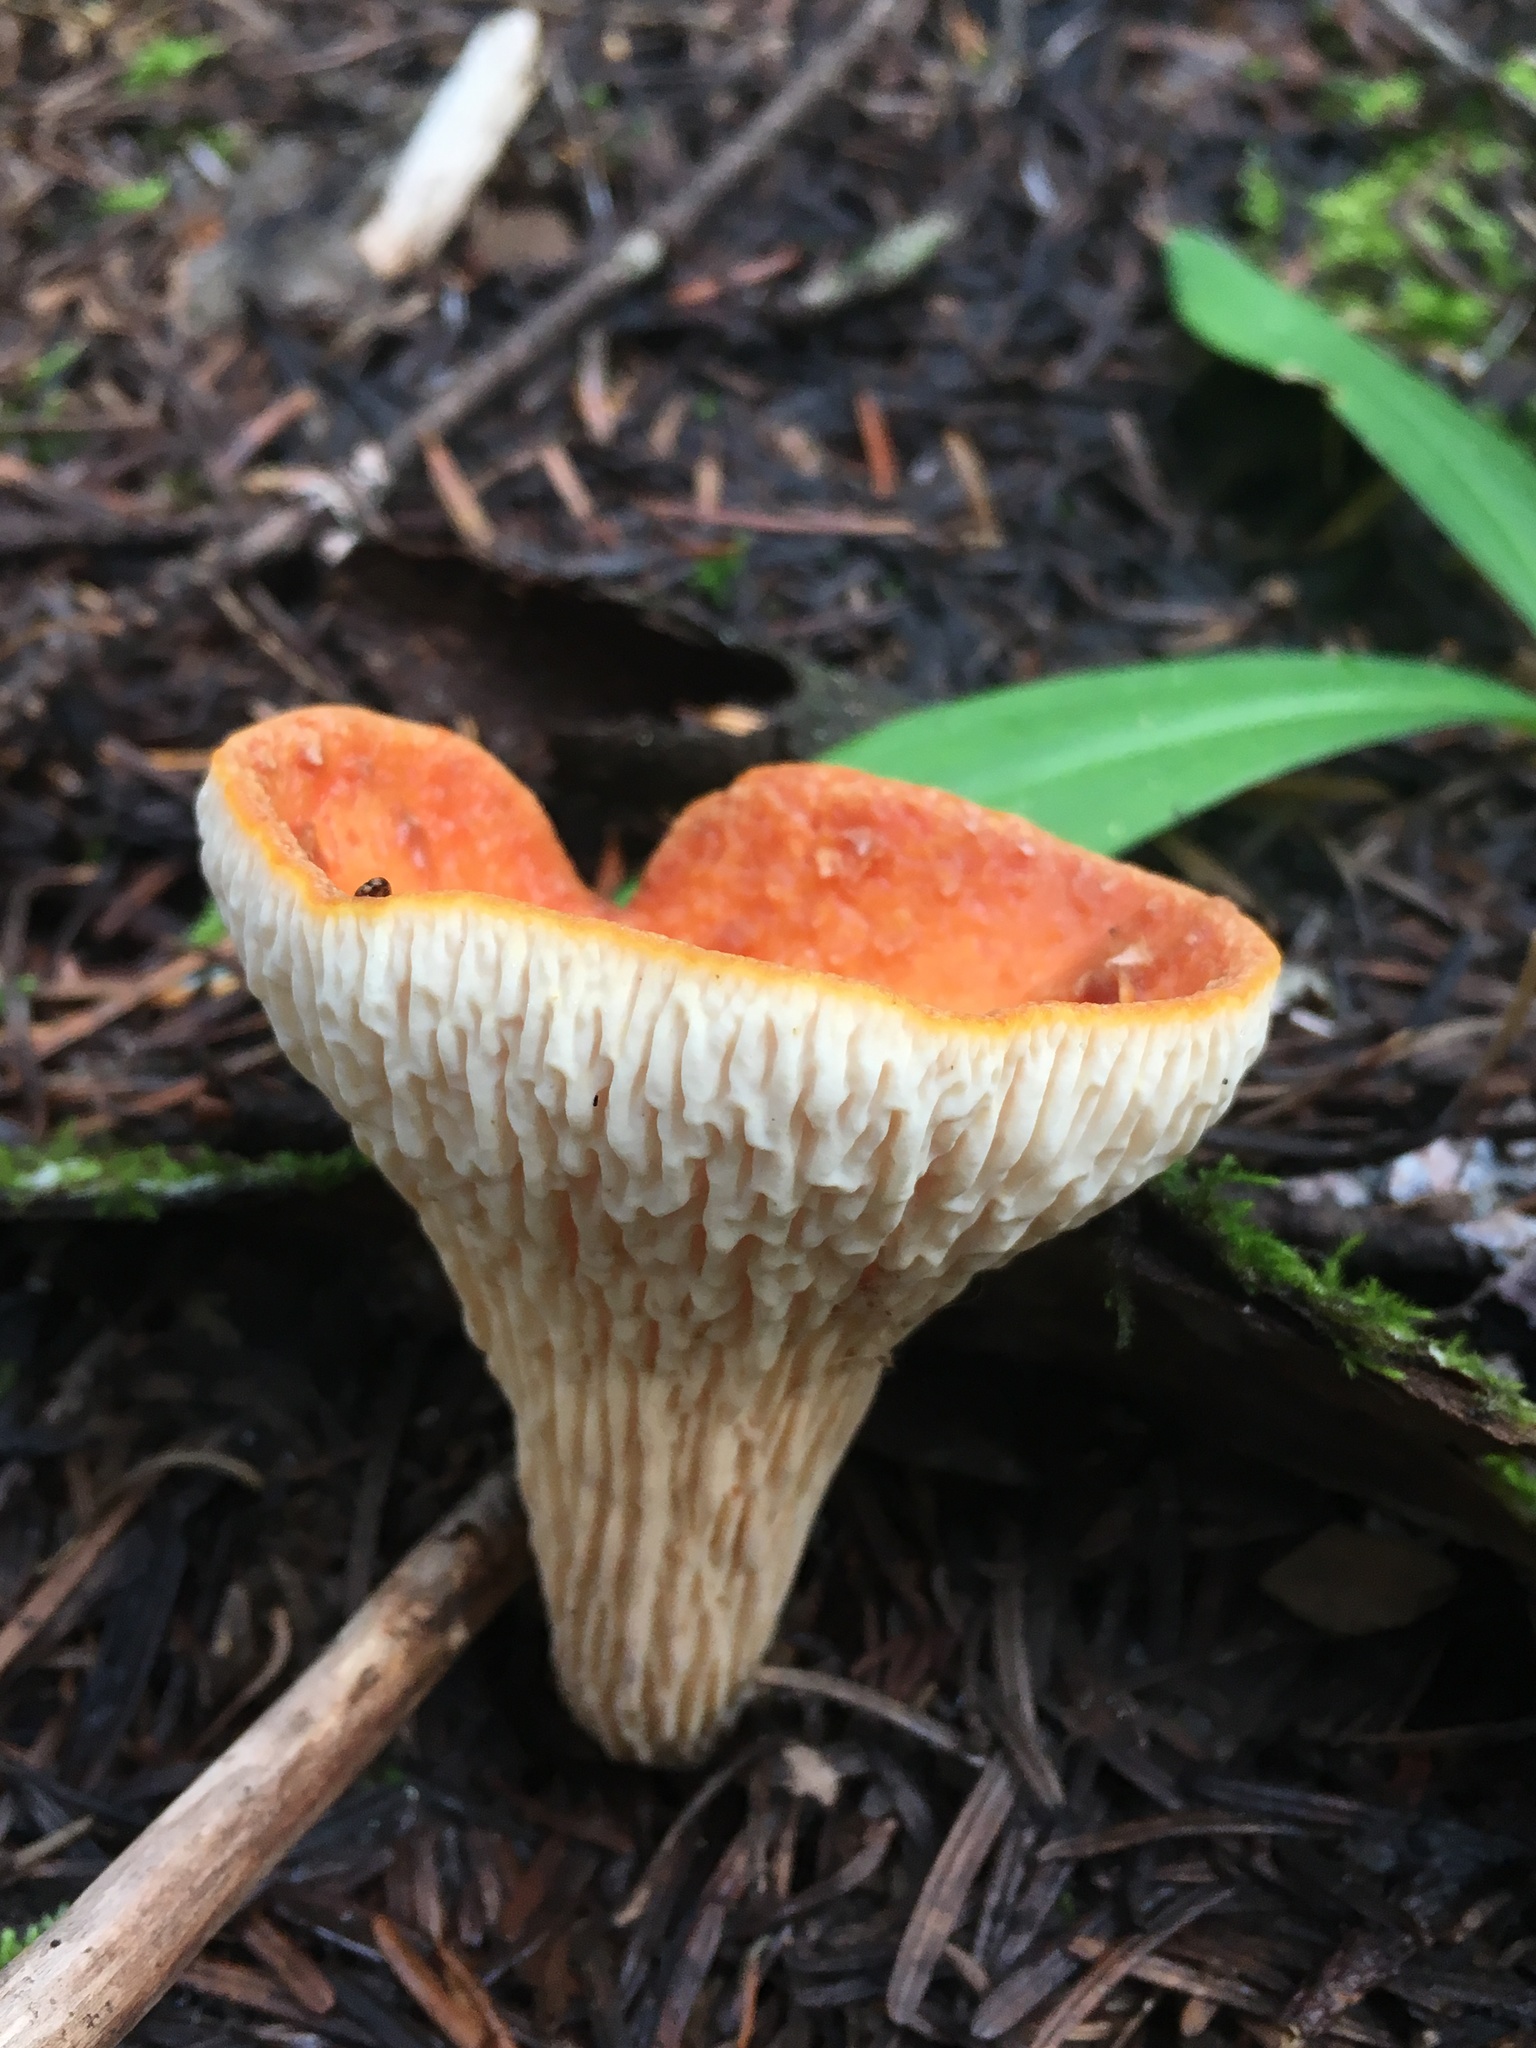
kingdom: Fungi
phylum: Basidiomycota
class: Agaricomycetes
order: Gomphales
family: Gomphaceae
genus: Turbinellus
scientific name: Turbinellus floccosus
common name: Scaly chanterelle
